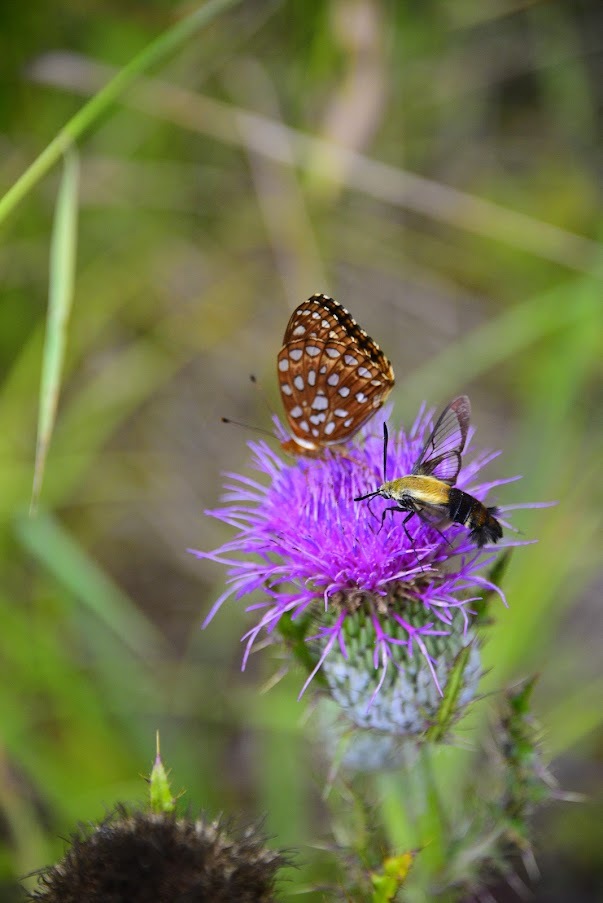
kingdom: Animalia
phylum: Arthropoda
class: Insecta
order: Lepidoptera
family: Sphingidae
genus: Hemaris
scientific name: Hemaris diffinis
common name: Bumblebee moth
